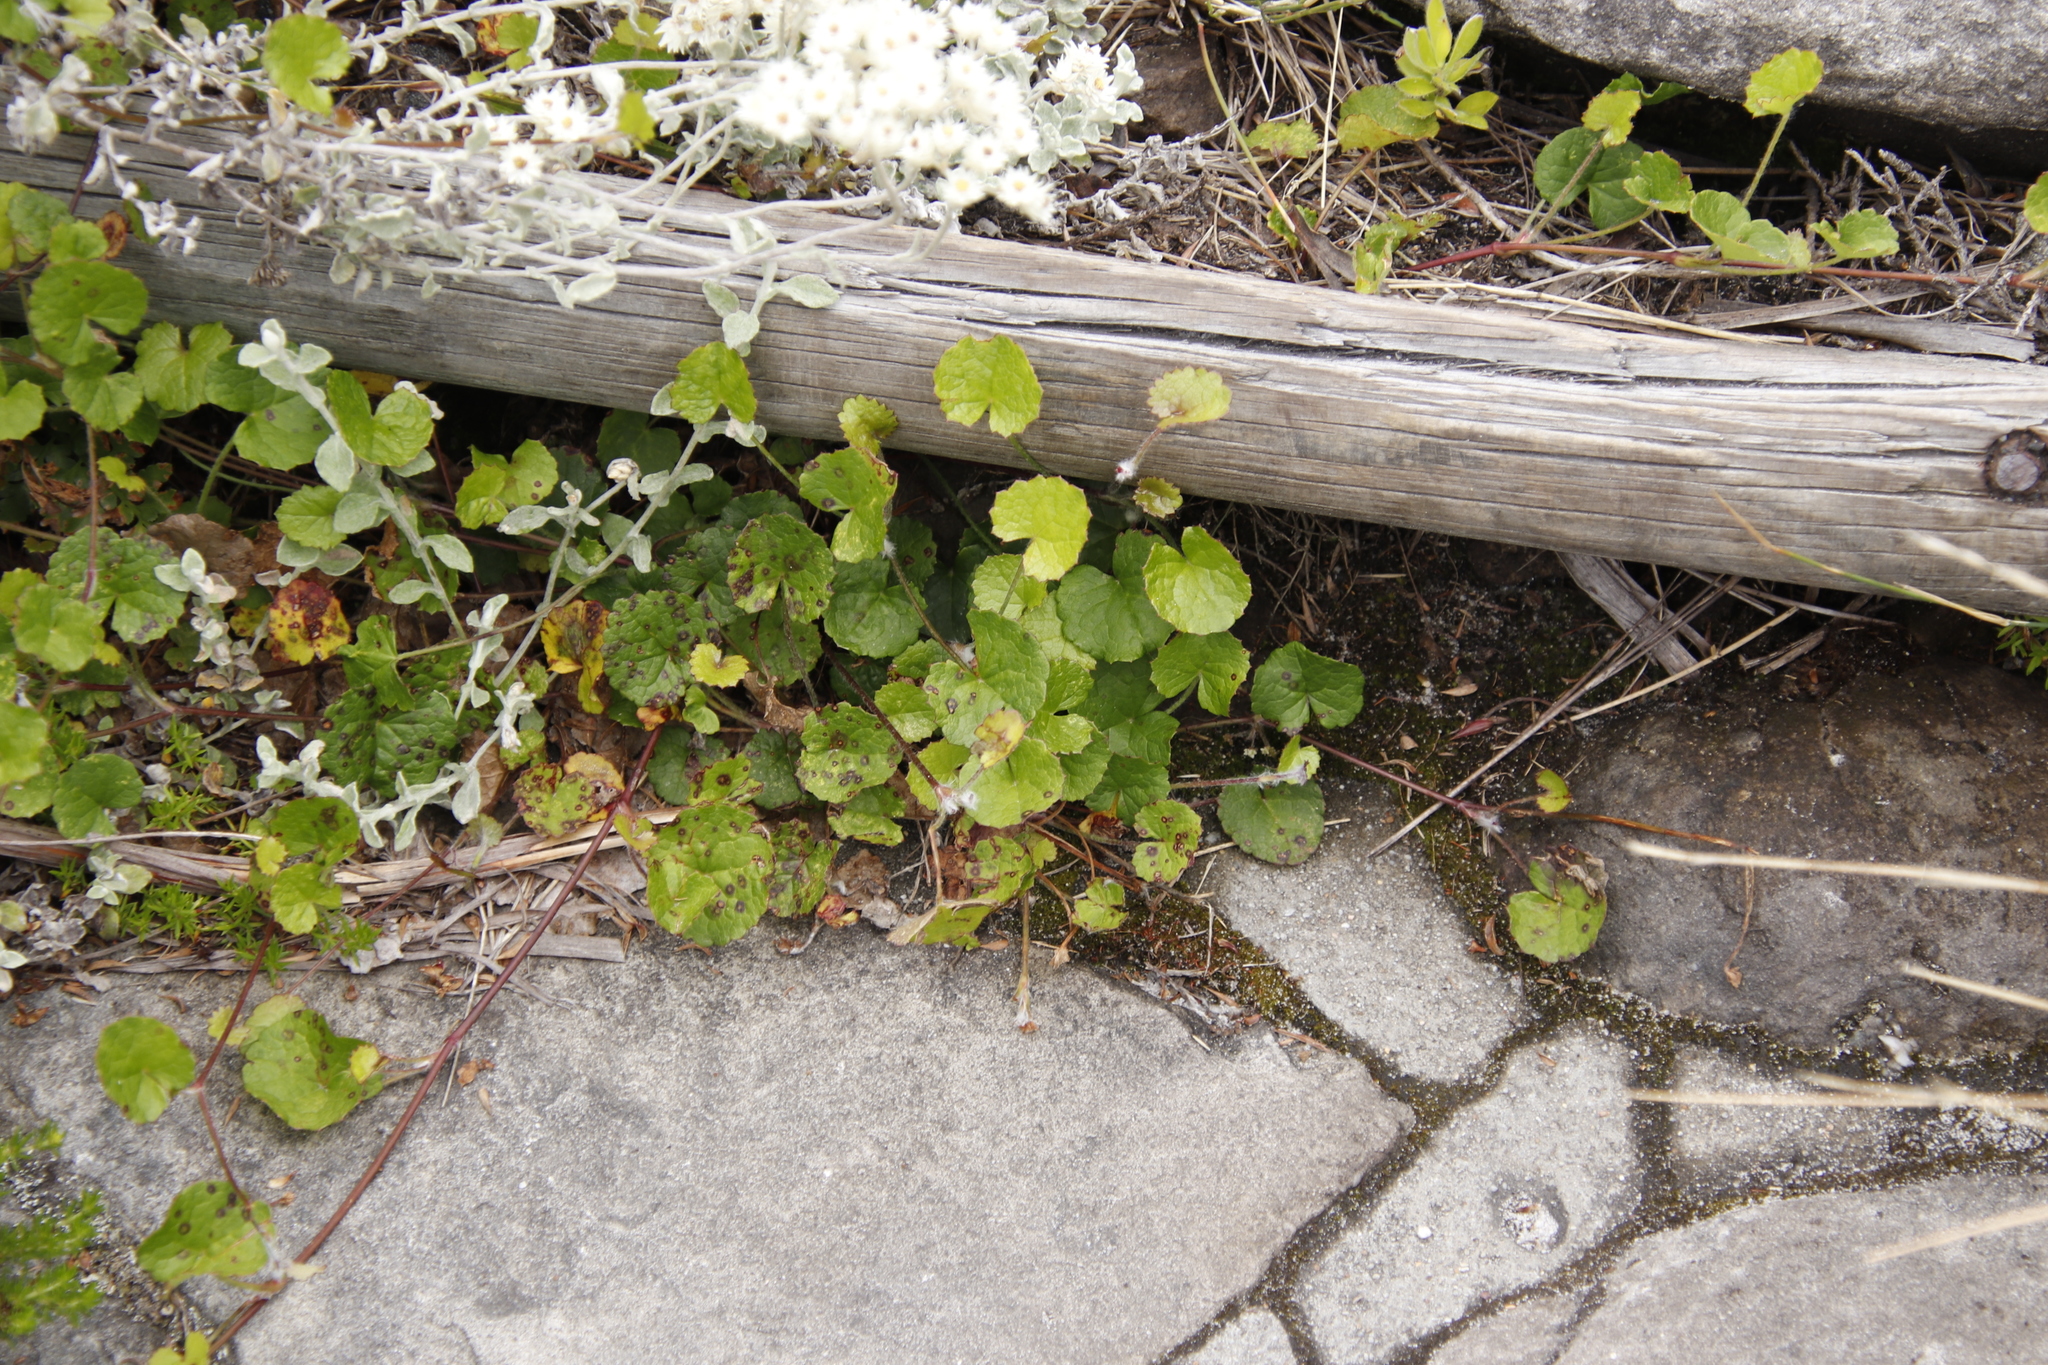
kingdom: Plantae
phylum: Tracheophyta
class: Magnoliopsida
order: Apiales
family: Apiaceae
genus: Centella
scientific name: Centella eriantha
